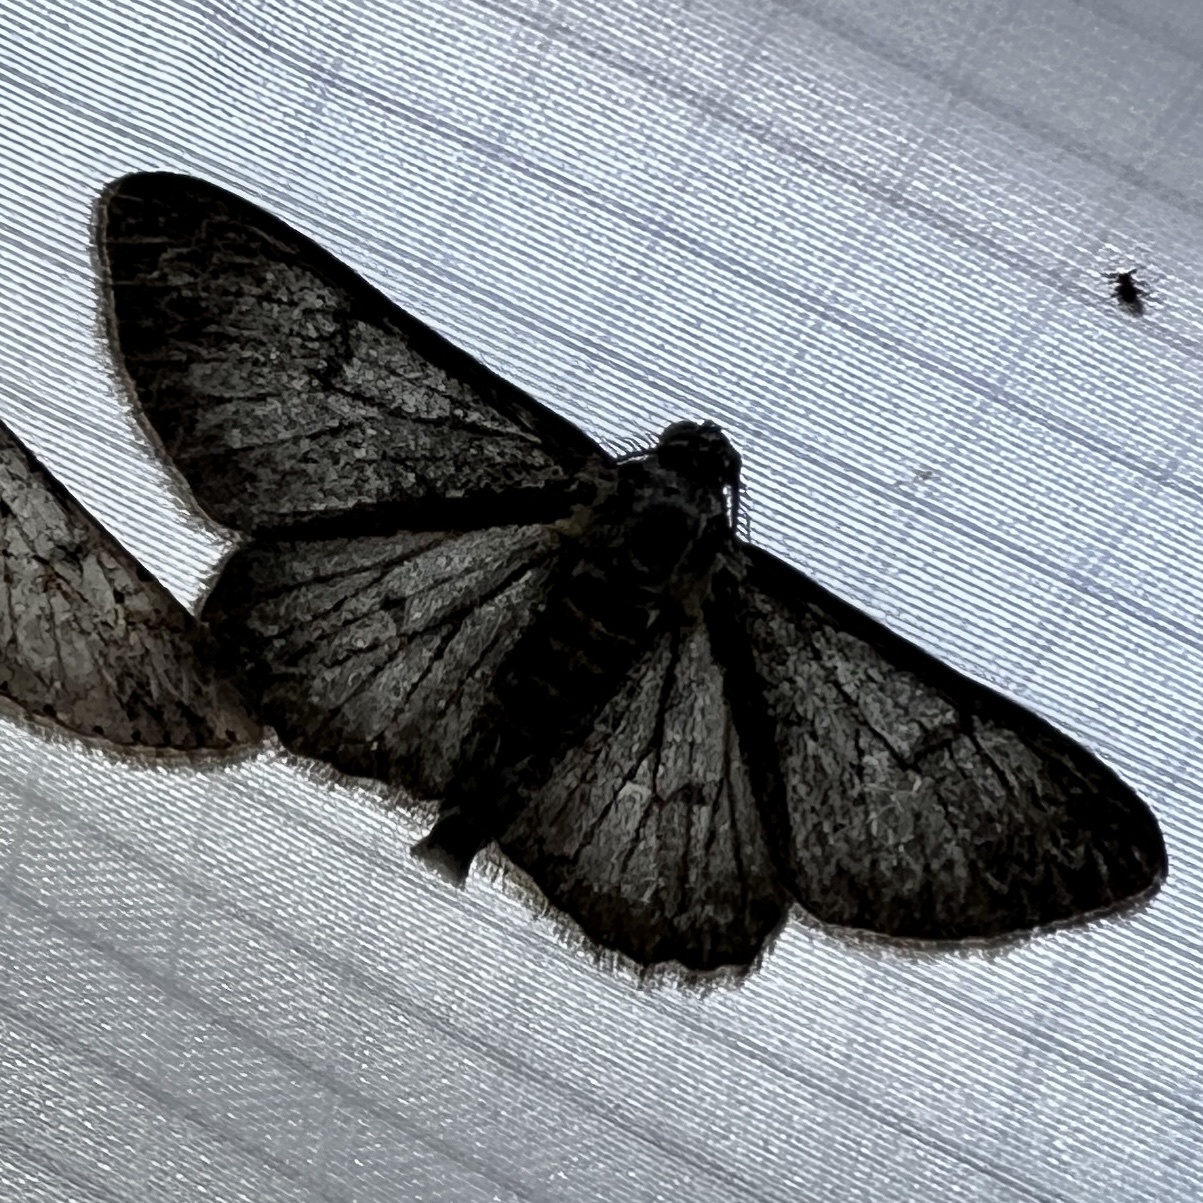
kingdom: Animalia
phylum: Arthropoda
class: Insecta
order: Lepidoptera
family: Geometridae
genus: Iridopsis
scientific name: Iridopsis fragilaria
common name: Moth
